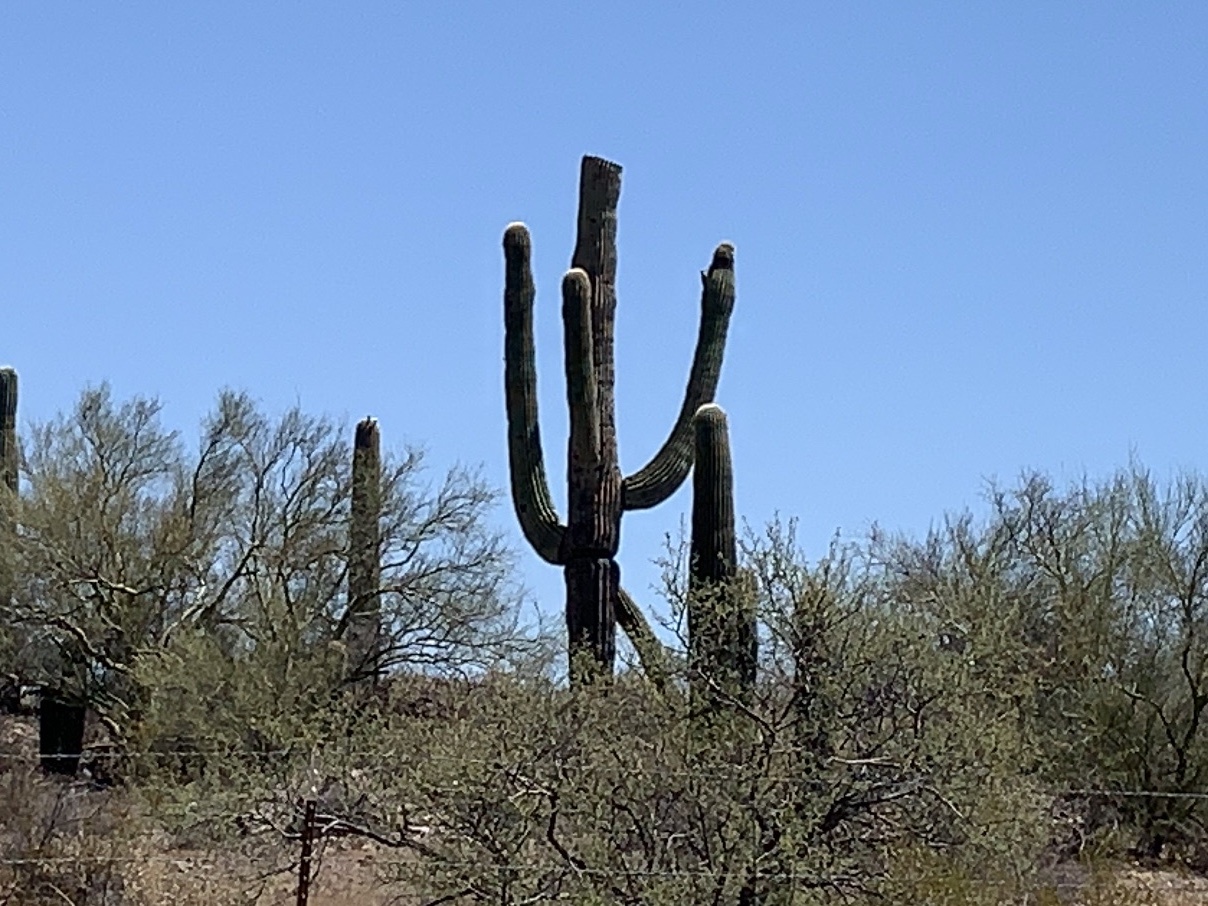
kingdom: Plantae
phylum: Tracheophyta
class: Magnoliopsida
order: Caryophyllales
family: Cactaceae
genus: Carnegiea
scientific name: Carnegiea gigantea
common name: Saguaro
